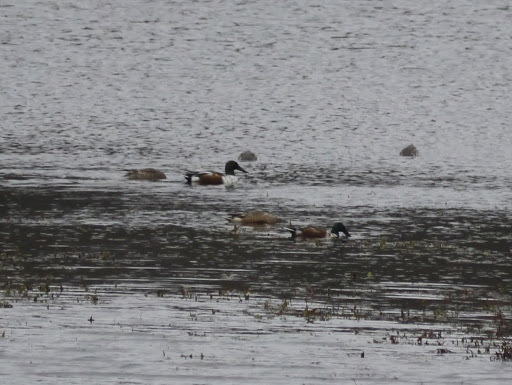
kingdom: Animalia
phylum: Chordata
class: Aves
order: Anseriformes
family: Anatidae
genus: Spatula
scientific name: Spatula clypeata
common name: Northern shoveler
